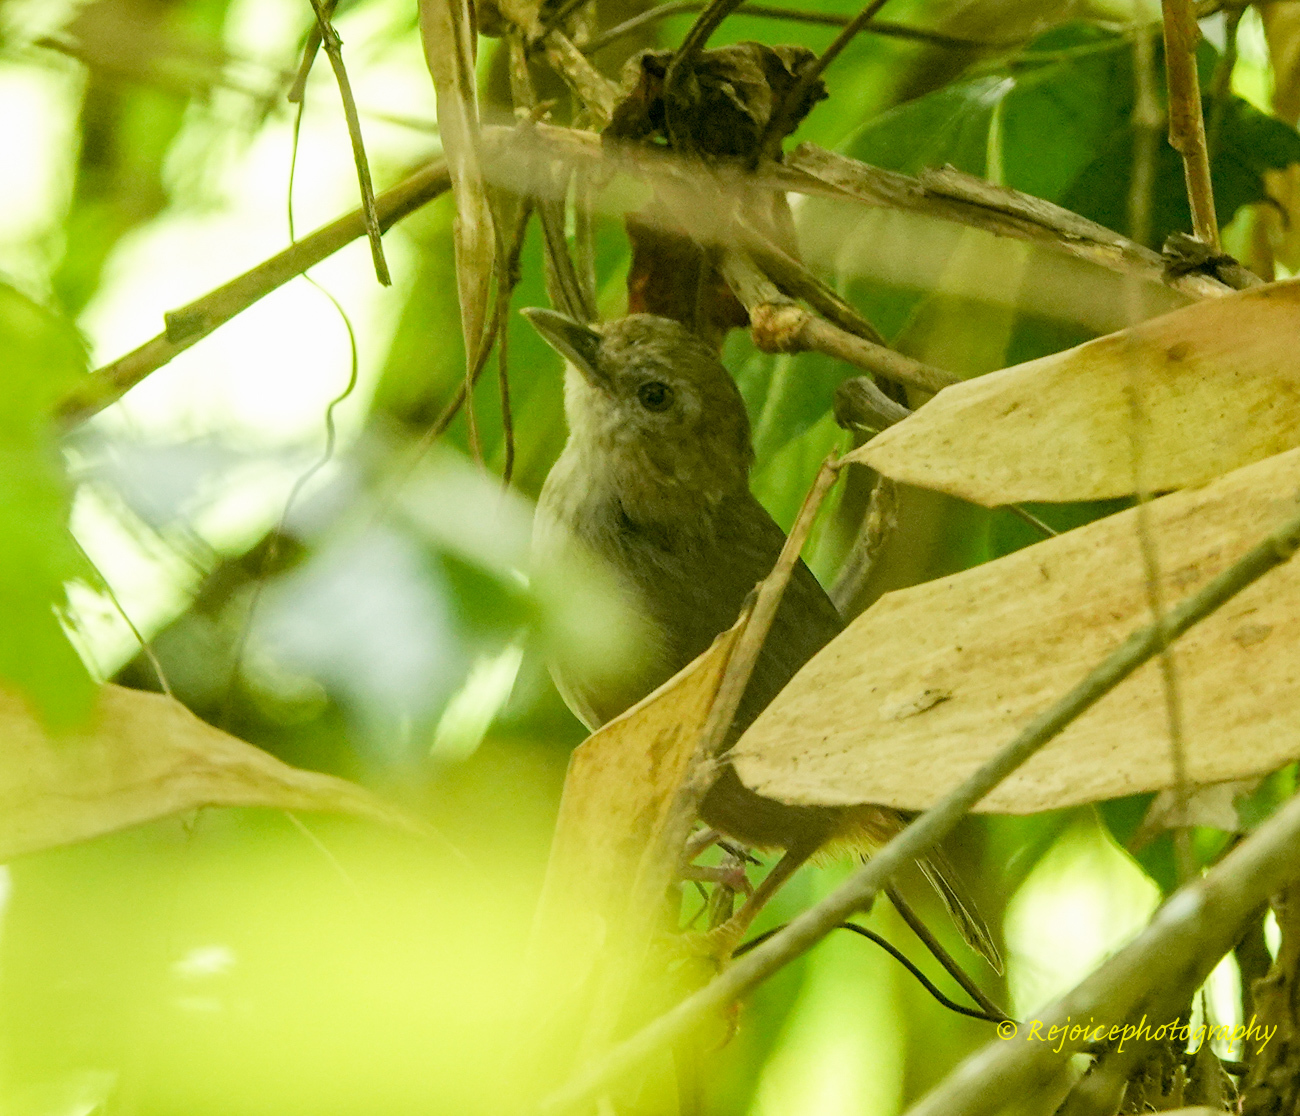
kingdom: Animalia
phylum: Chordata
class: Aves
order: Passeriformes
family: Pellorneidae
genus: Malacocincla
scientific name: Malacocincla abbotti
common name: Abbott's babbler
